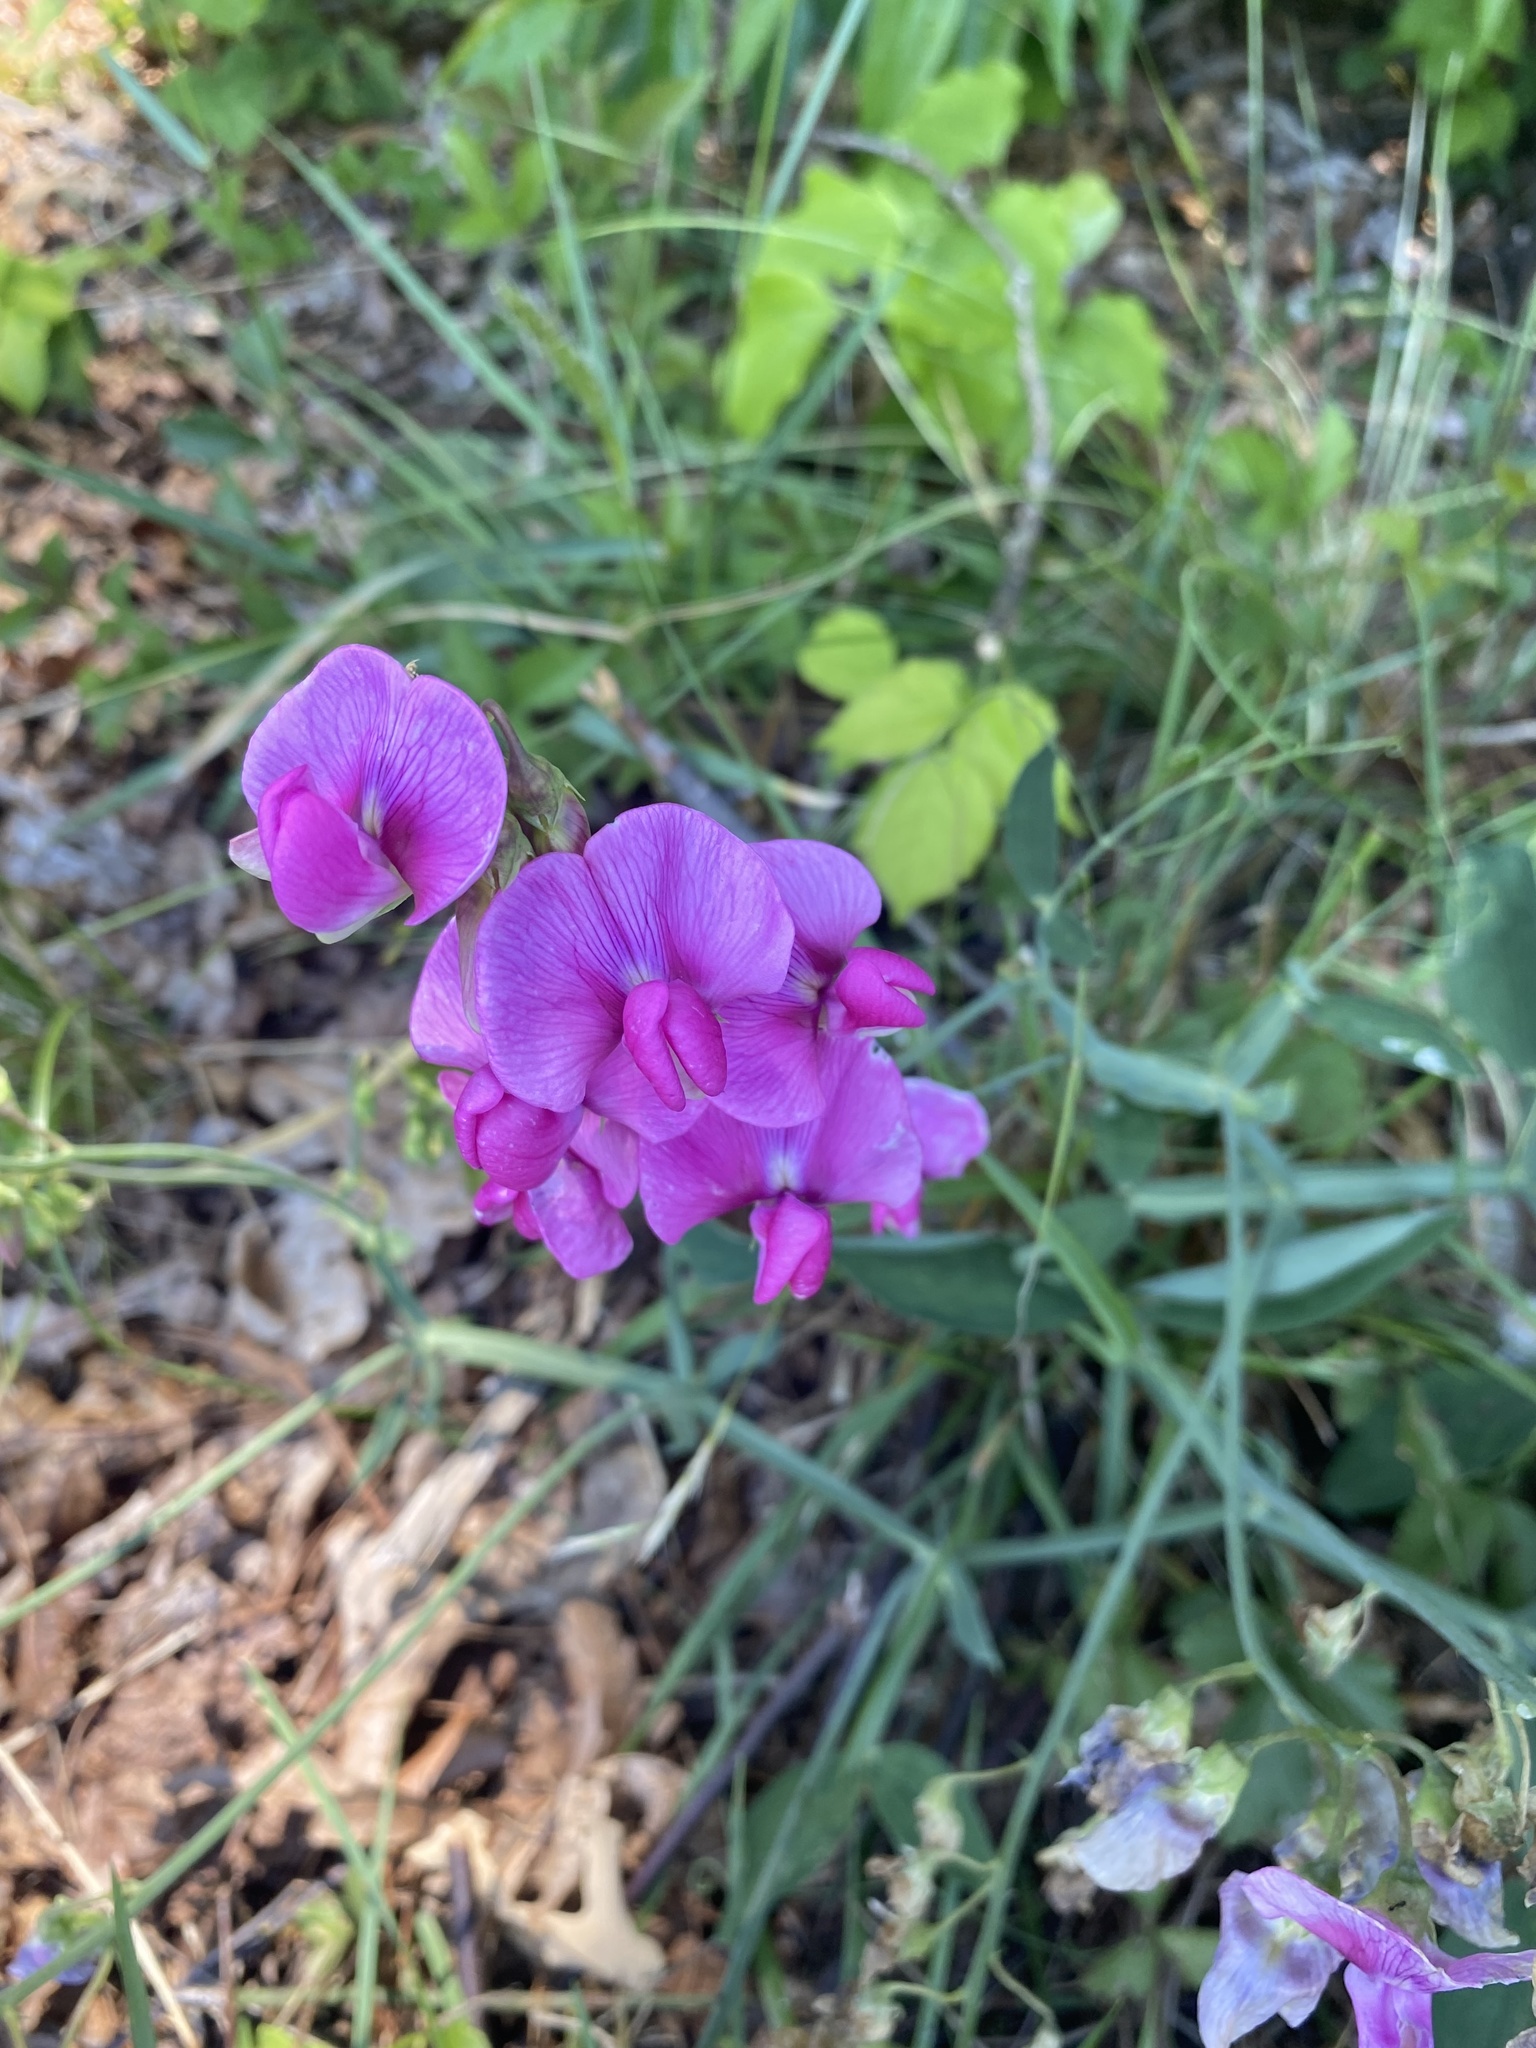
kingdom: Plantae
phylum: Tracheophyta
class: Magnoliopsida
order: Fabales
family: Fabaceae
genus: Lathyrus
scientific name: Lathyrus latifolius
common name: Perennial pea
